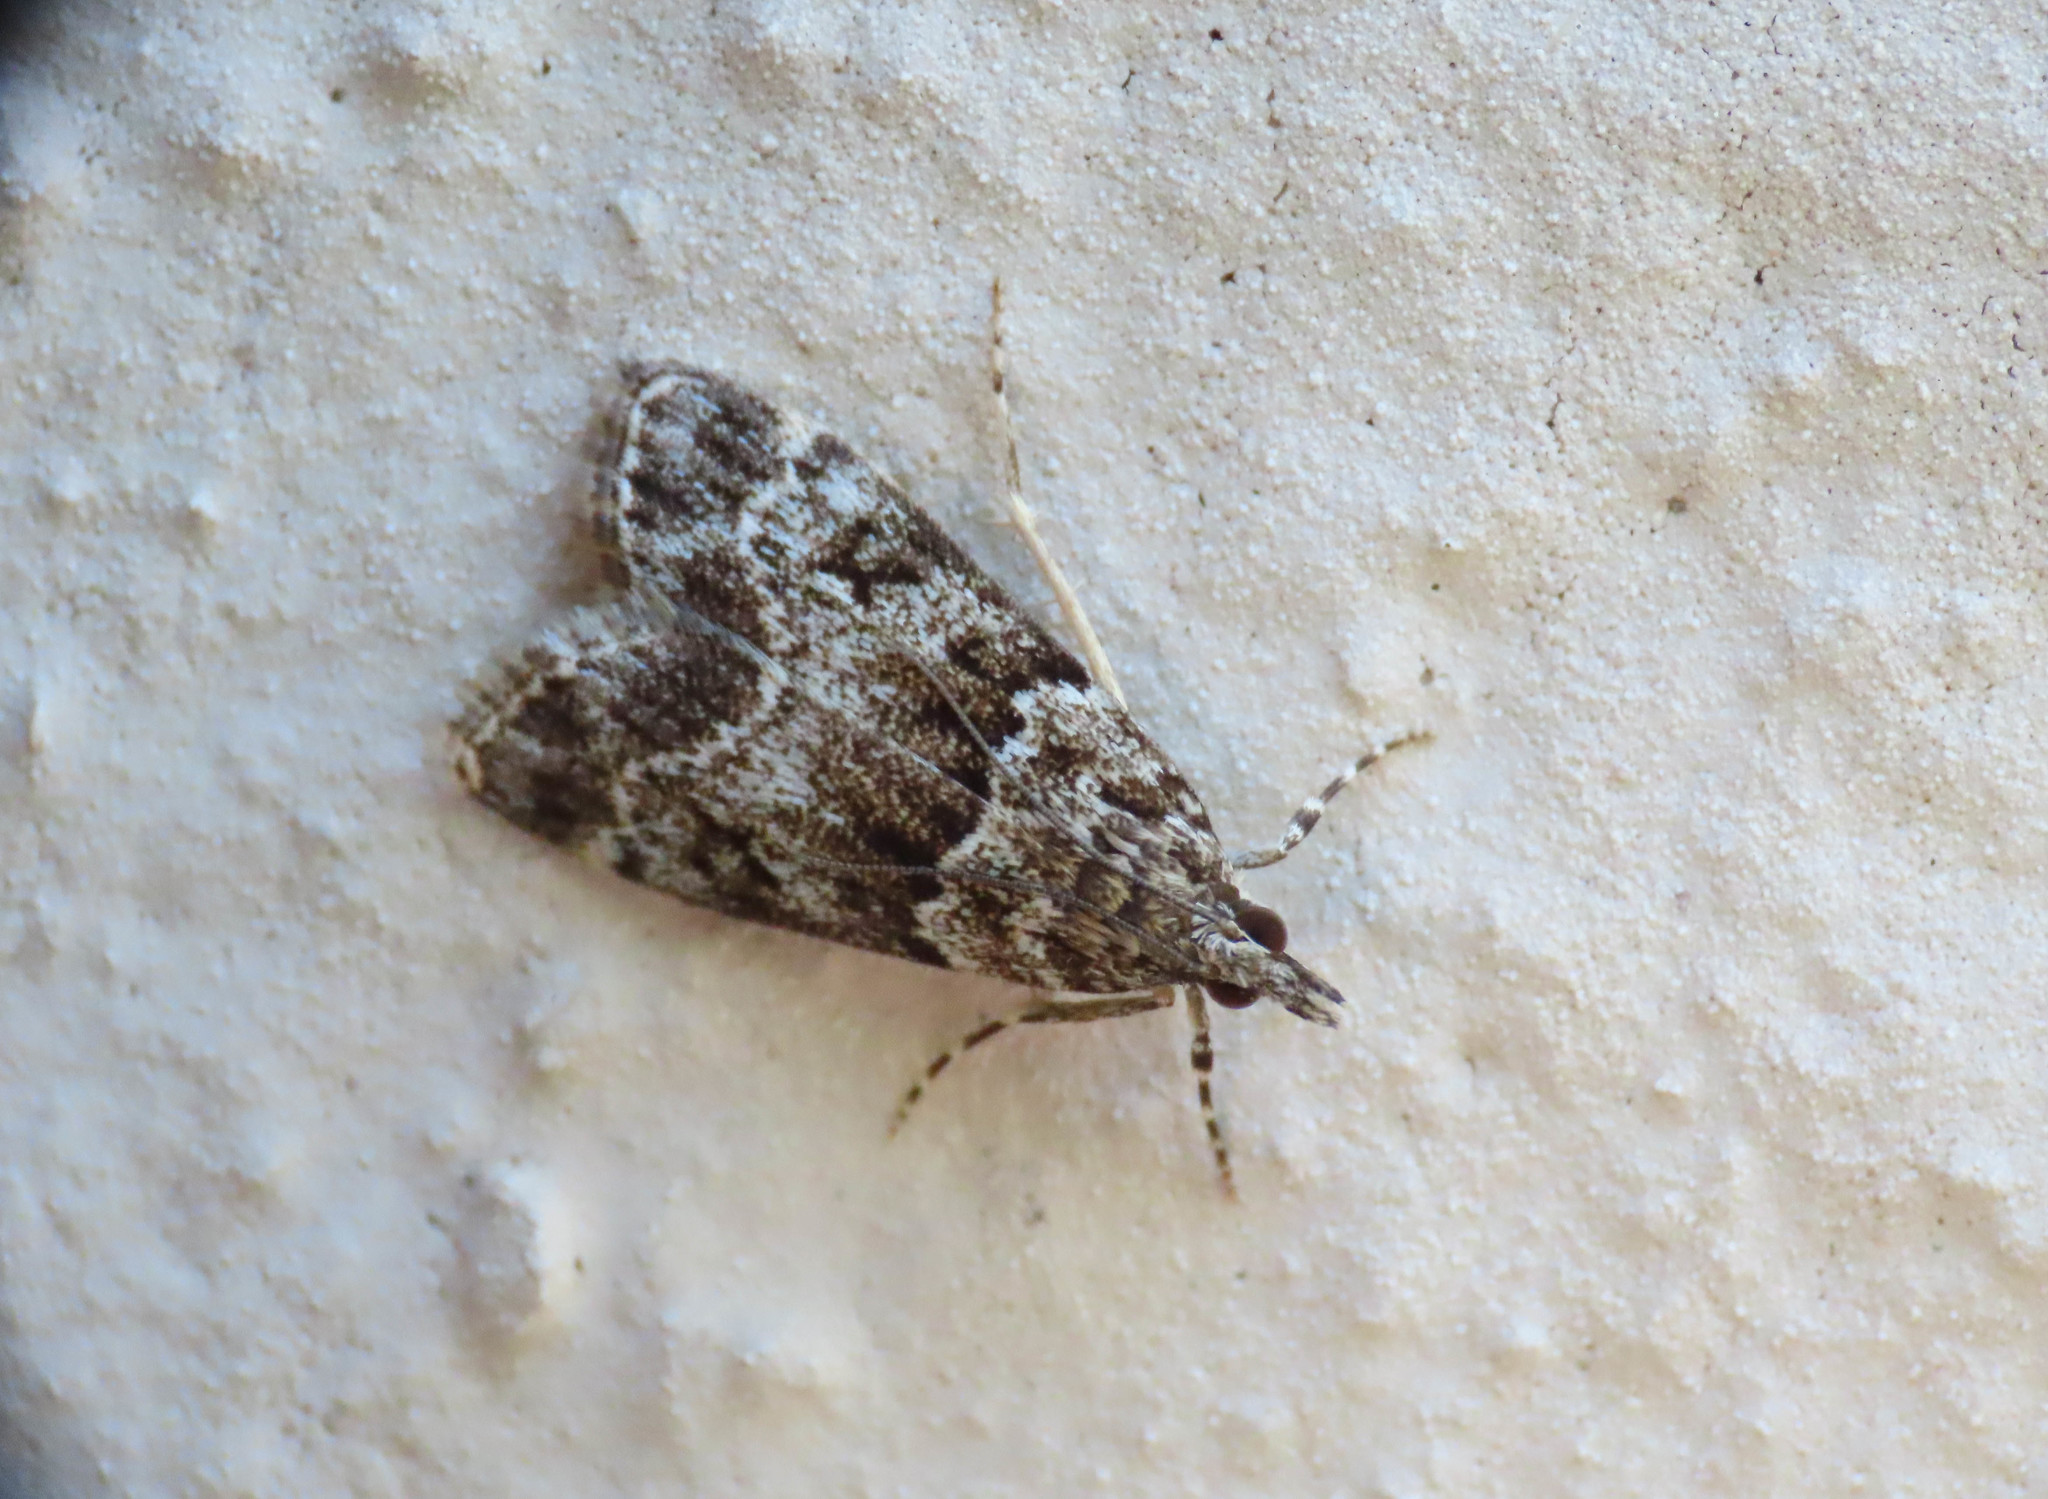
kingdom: Animalia
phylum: Arthropoda
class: Insecta
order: Lepidoptera
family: Crambidae
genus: Eudonia
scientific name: Eudonia mercurella
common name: Small grey
